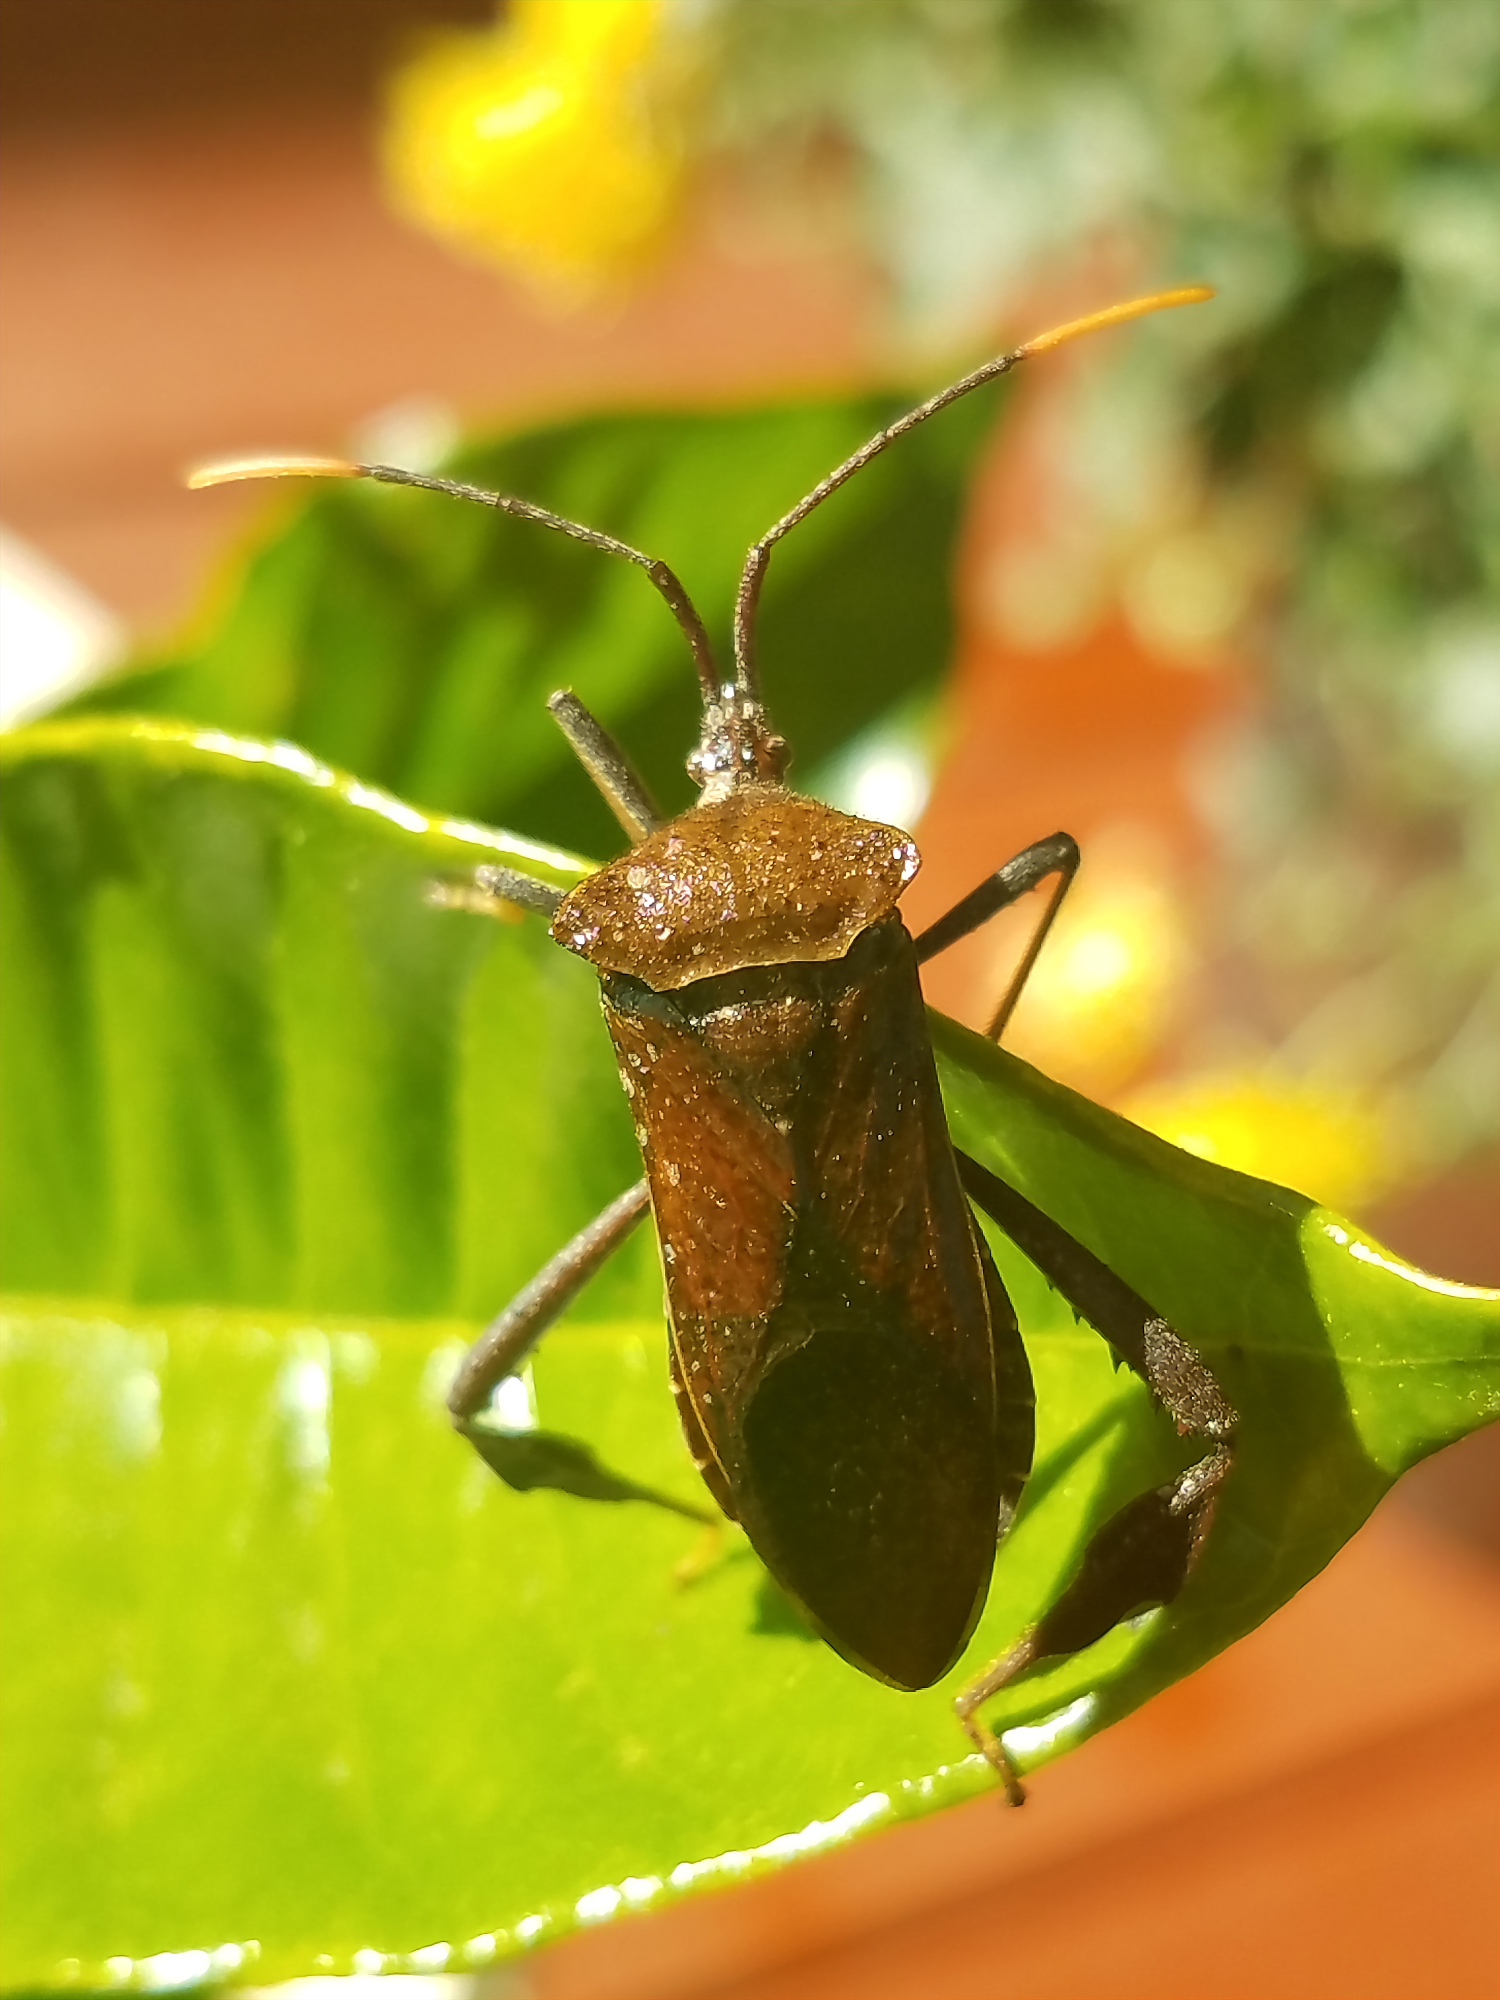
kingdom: Animalia
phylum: Arthropoda
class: Insecta
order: Hemiptera
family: Coreidae
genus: Acanthocephala
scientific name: Acanthocephala terminalis
